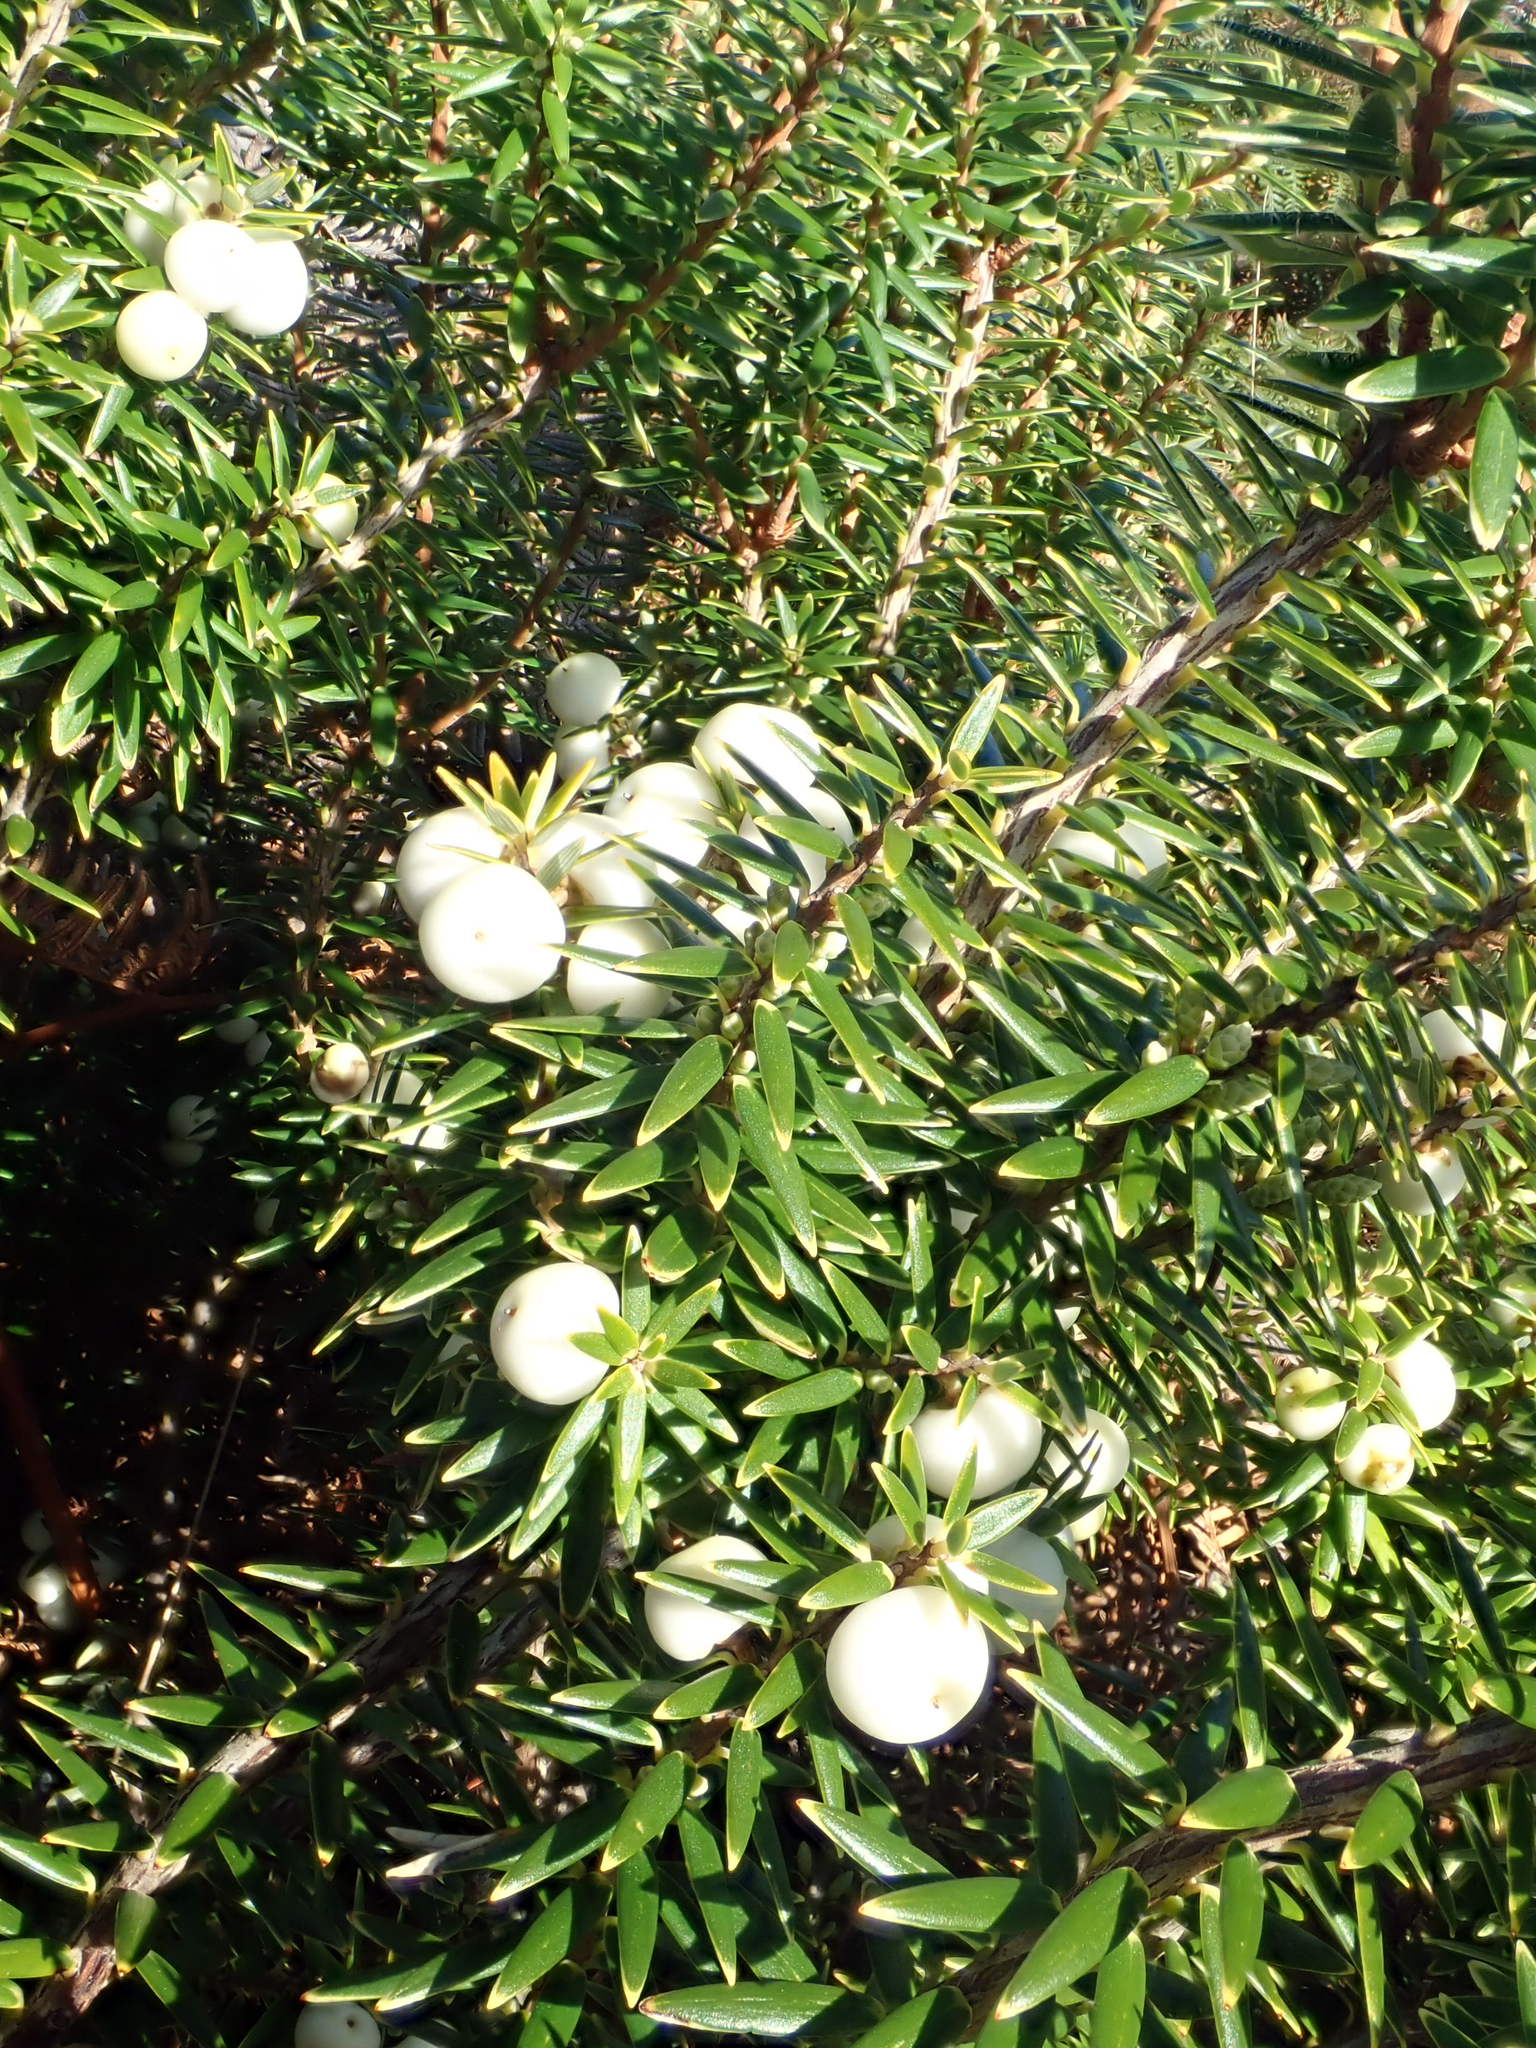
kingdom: Plantae
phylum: Tracheophyta
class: Magnoliopsida
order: Ericales
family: Ericaceae
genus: Leptecophylla
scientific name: Leptecophylla robusta
